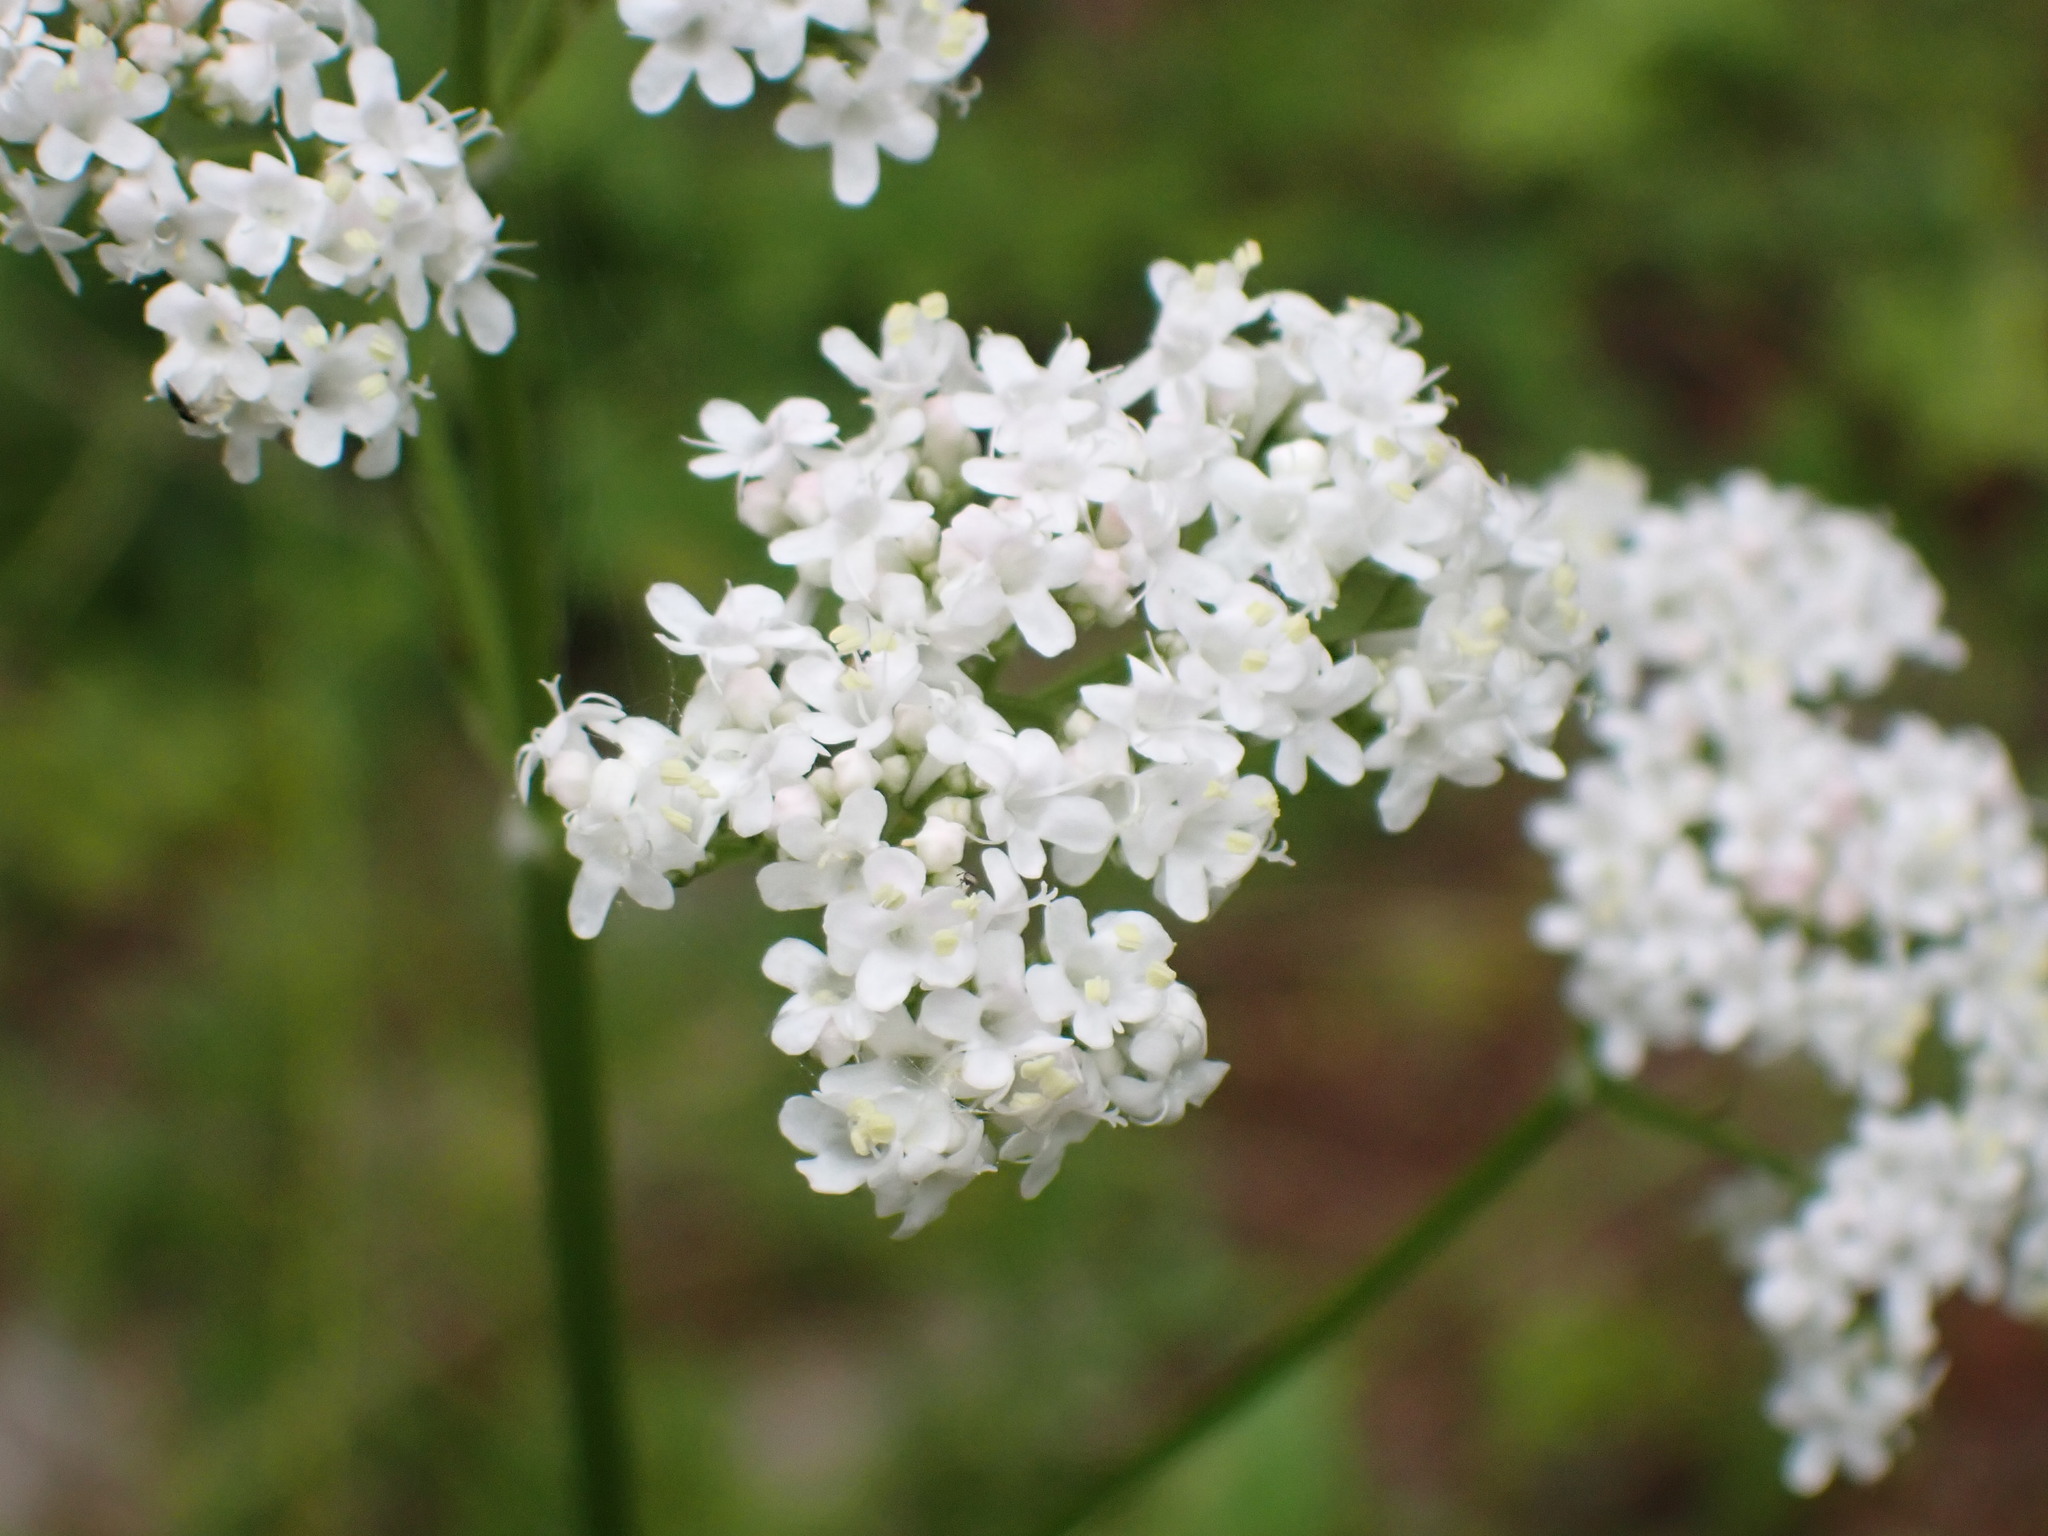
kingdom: Plantae
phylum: Tracheophyta
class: Magnoliopsida
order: Dipsacales
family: Caprifoliaceae
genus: Valeriana
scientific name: Valeriana officinalis
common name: Common valerian
